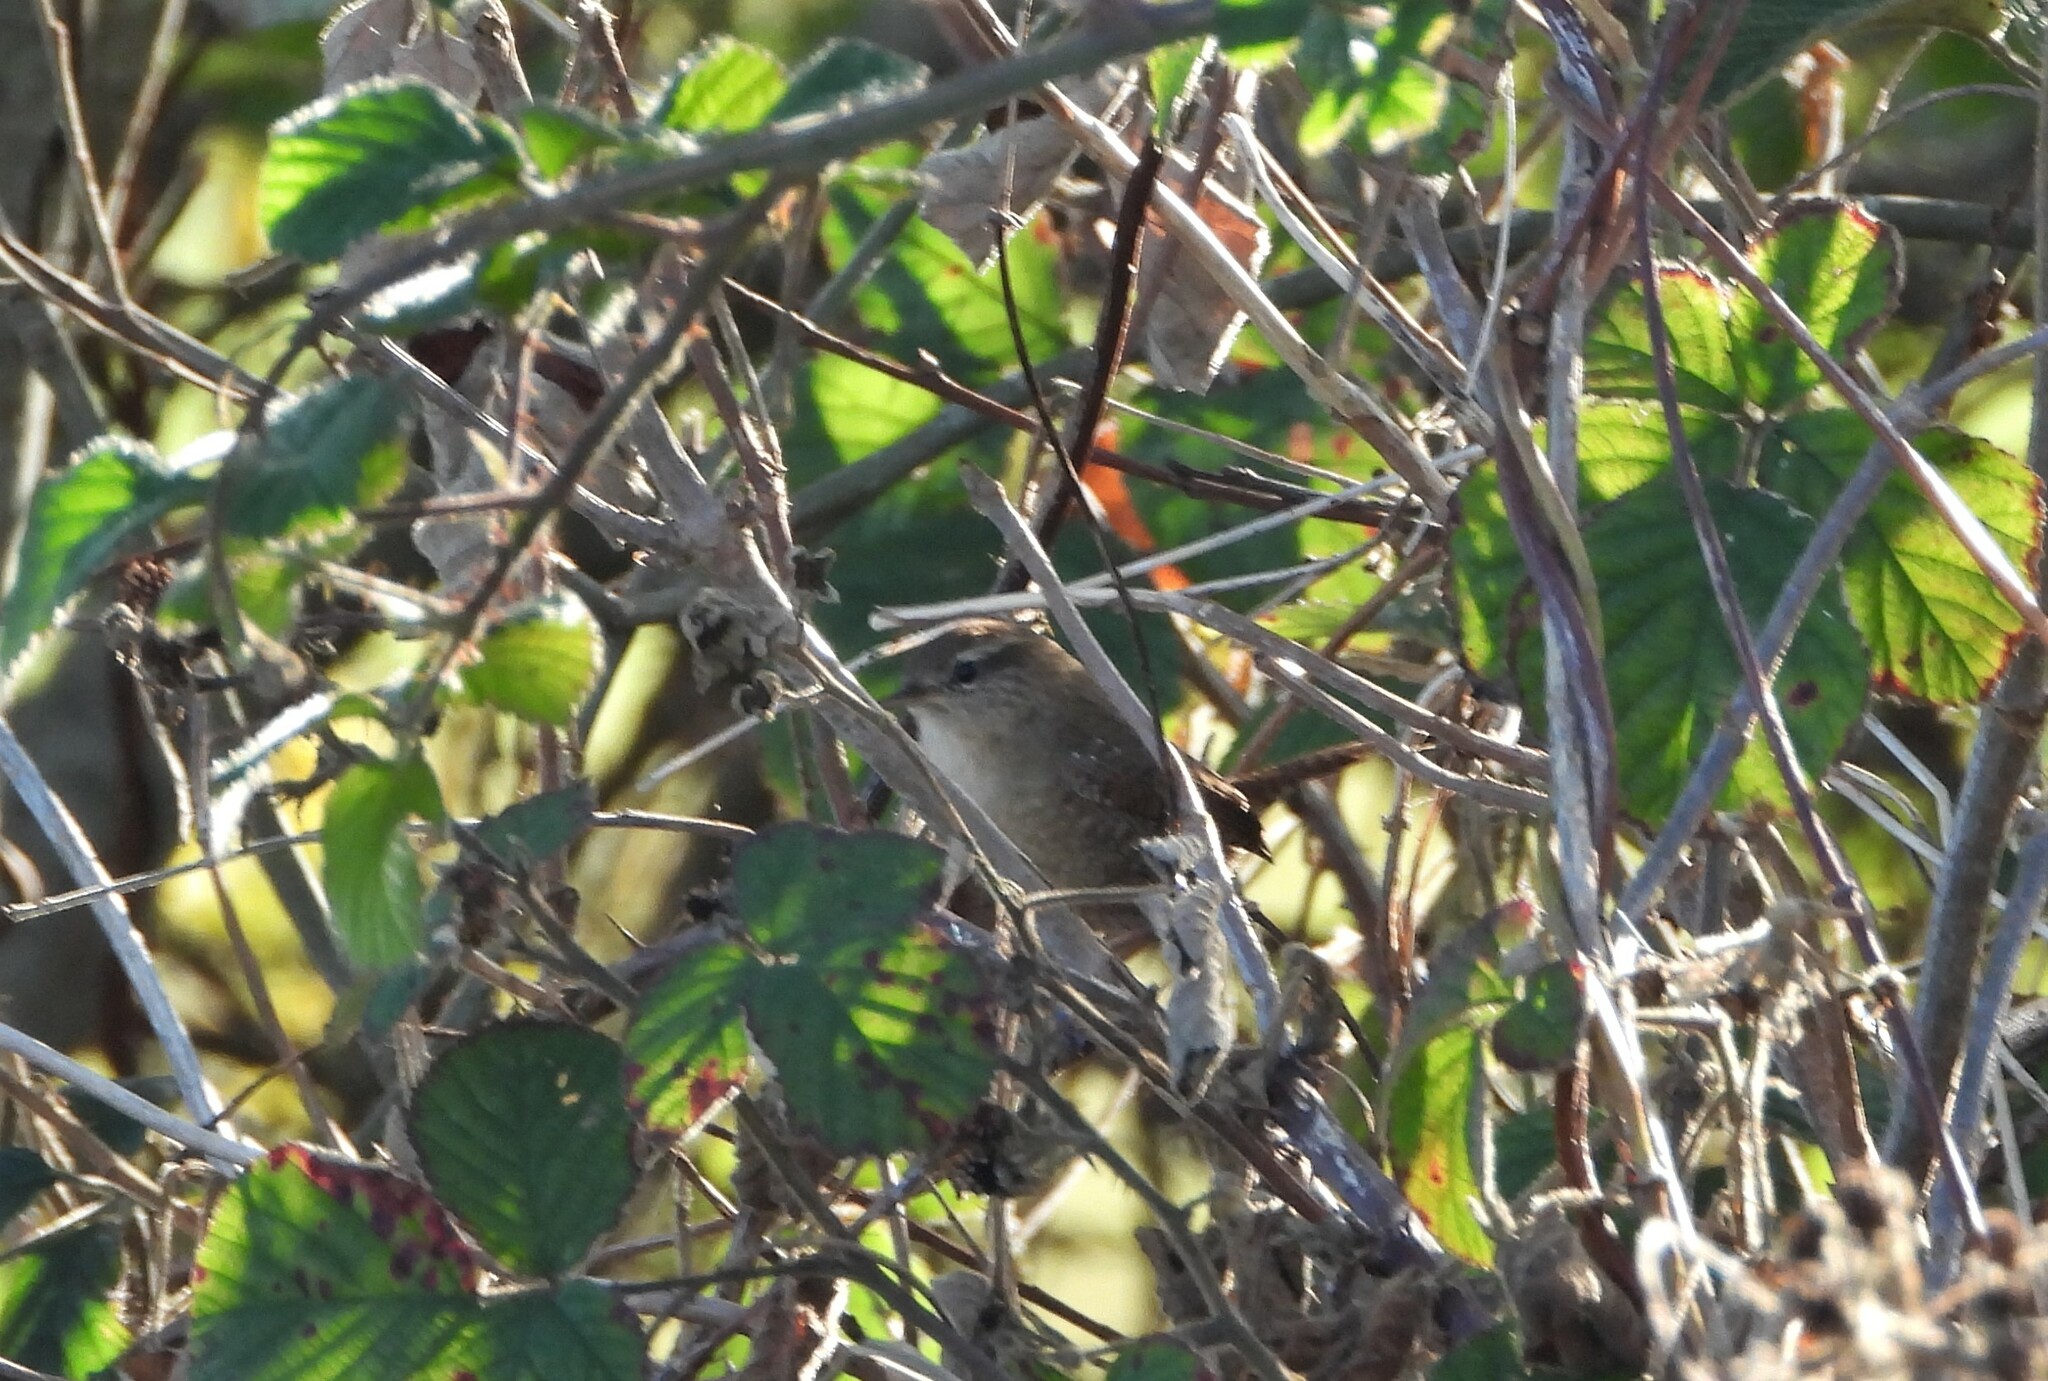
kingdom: Animalia
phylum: Chordata
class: Aves
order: Passeriformes
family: Troglodytidae
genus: Troglodytes
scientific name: Troglodytes troglodytes
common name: Eurasian wren
